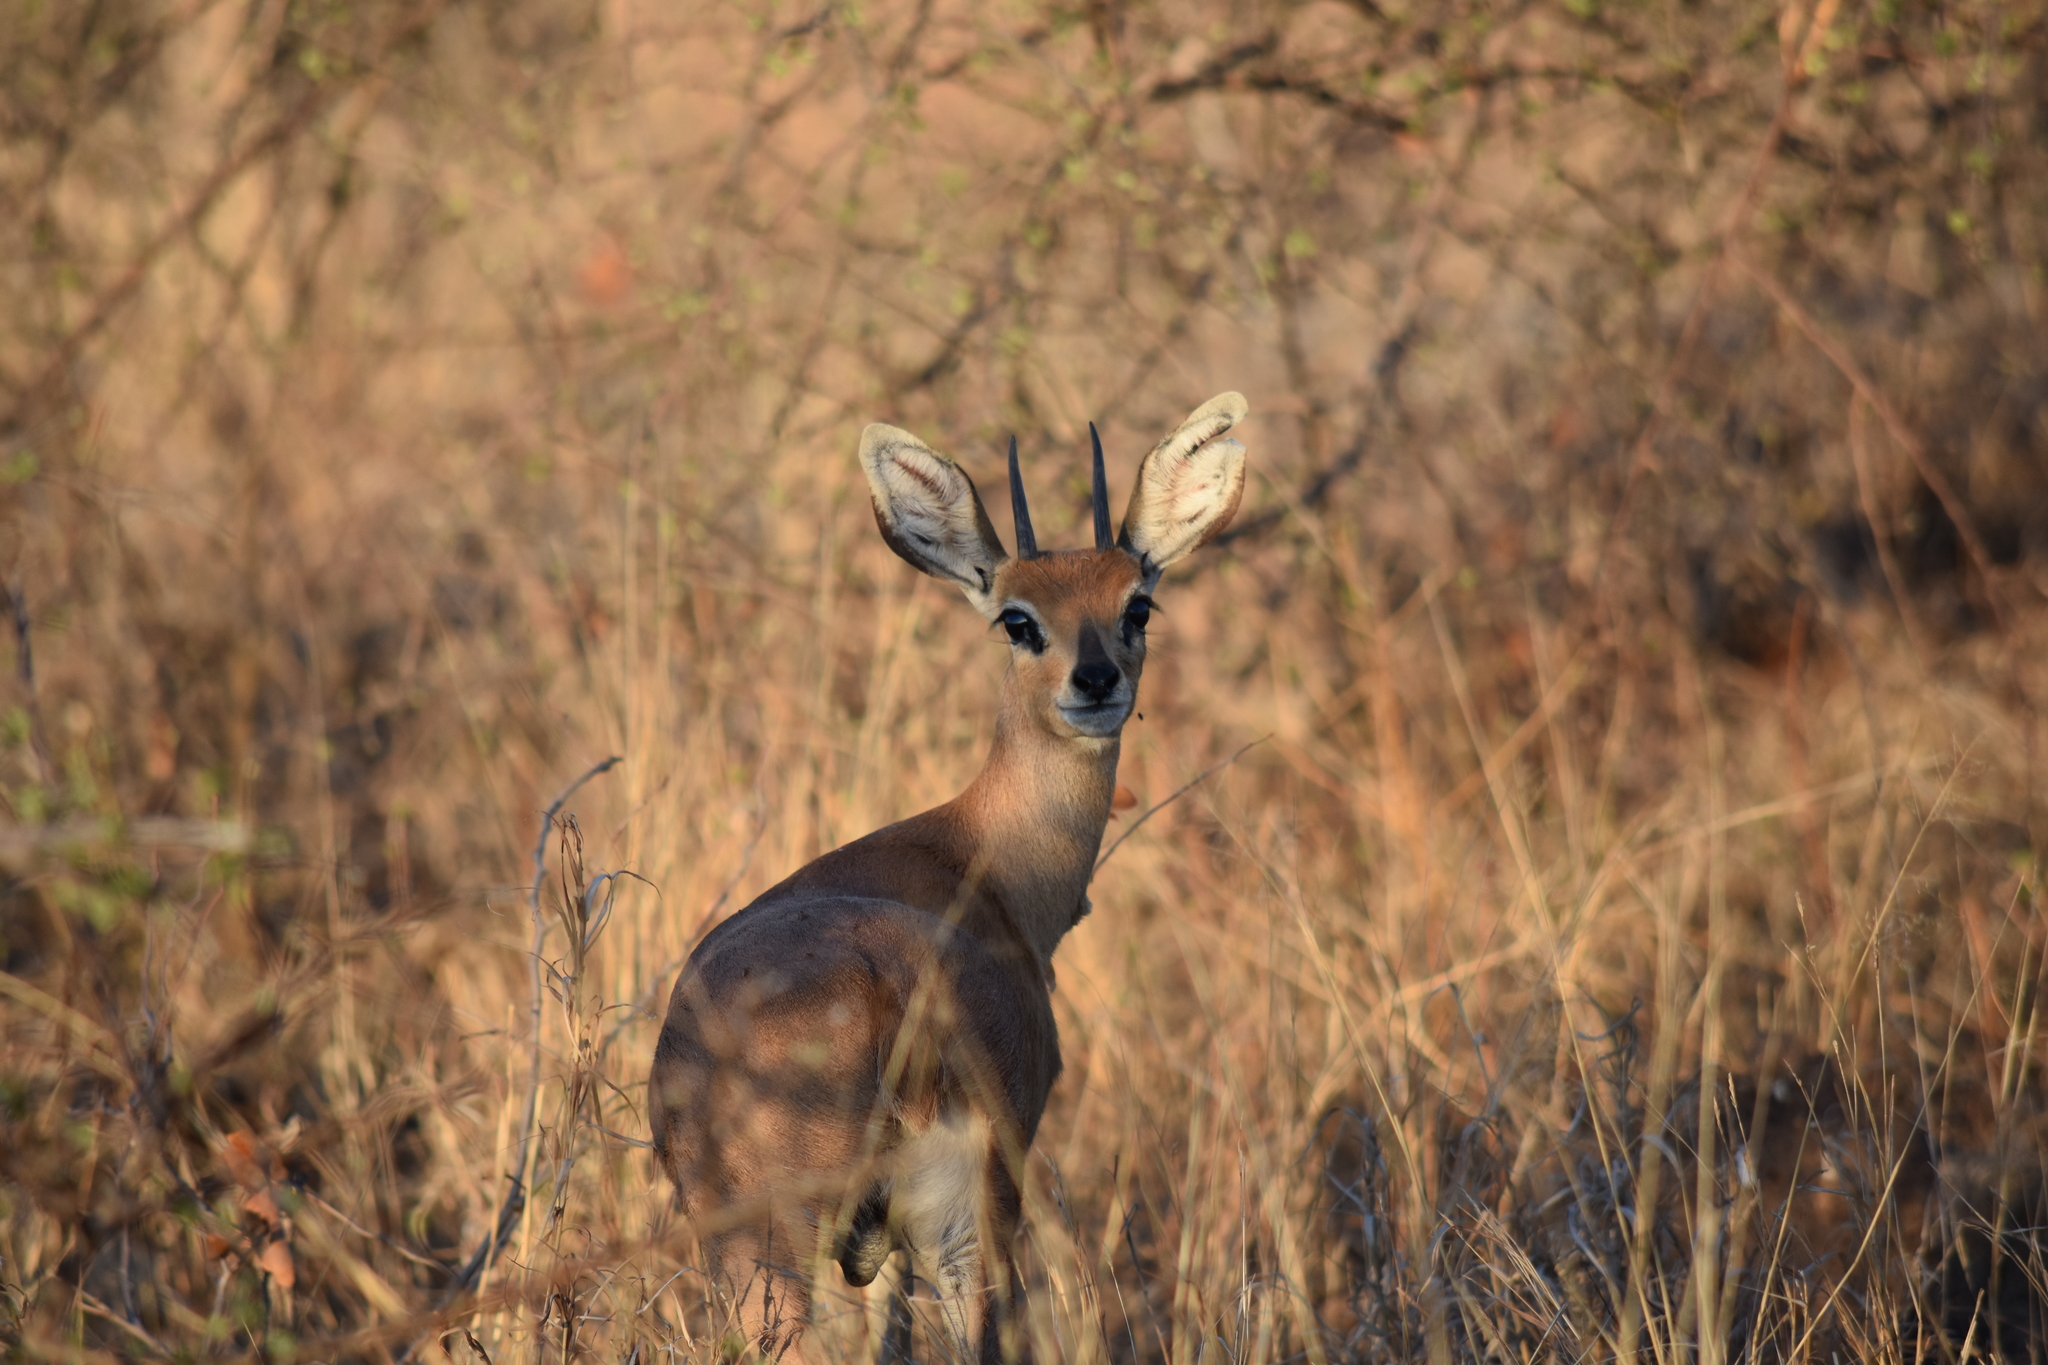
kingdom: Animalia
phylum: Chordata
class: Mammalia
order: Artiodactyla
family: Bovidae
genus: Raphicerus
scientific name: Raphicerus campestris
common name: Steenbok
